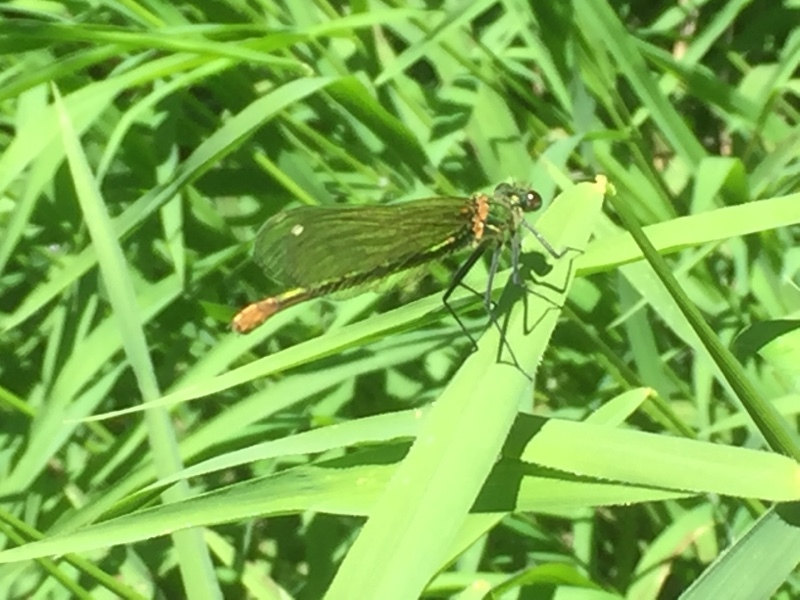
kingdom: Animalia
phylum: Arthropoda
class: Insecta
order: Odonata
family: Calopterygidae
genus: Calopteryx
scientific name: Calopteryx xanthostoma
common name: Western demoiselle
